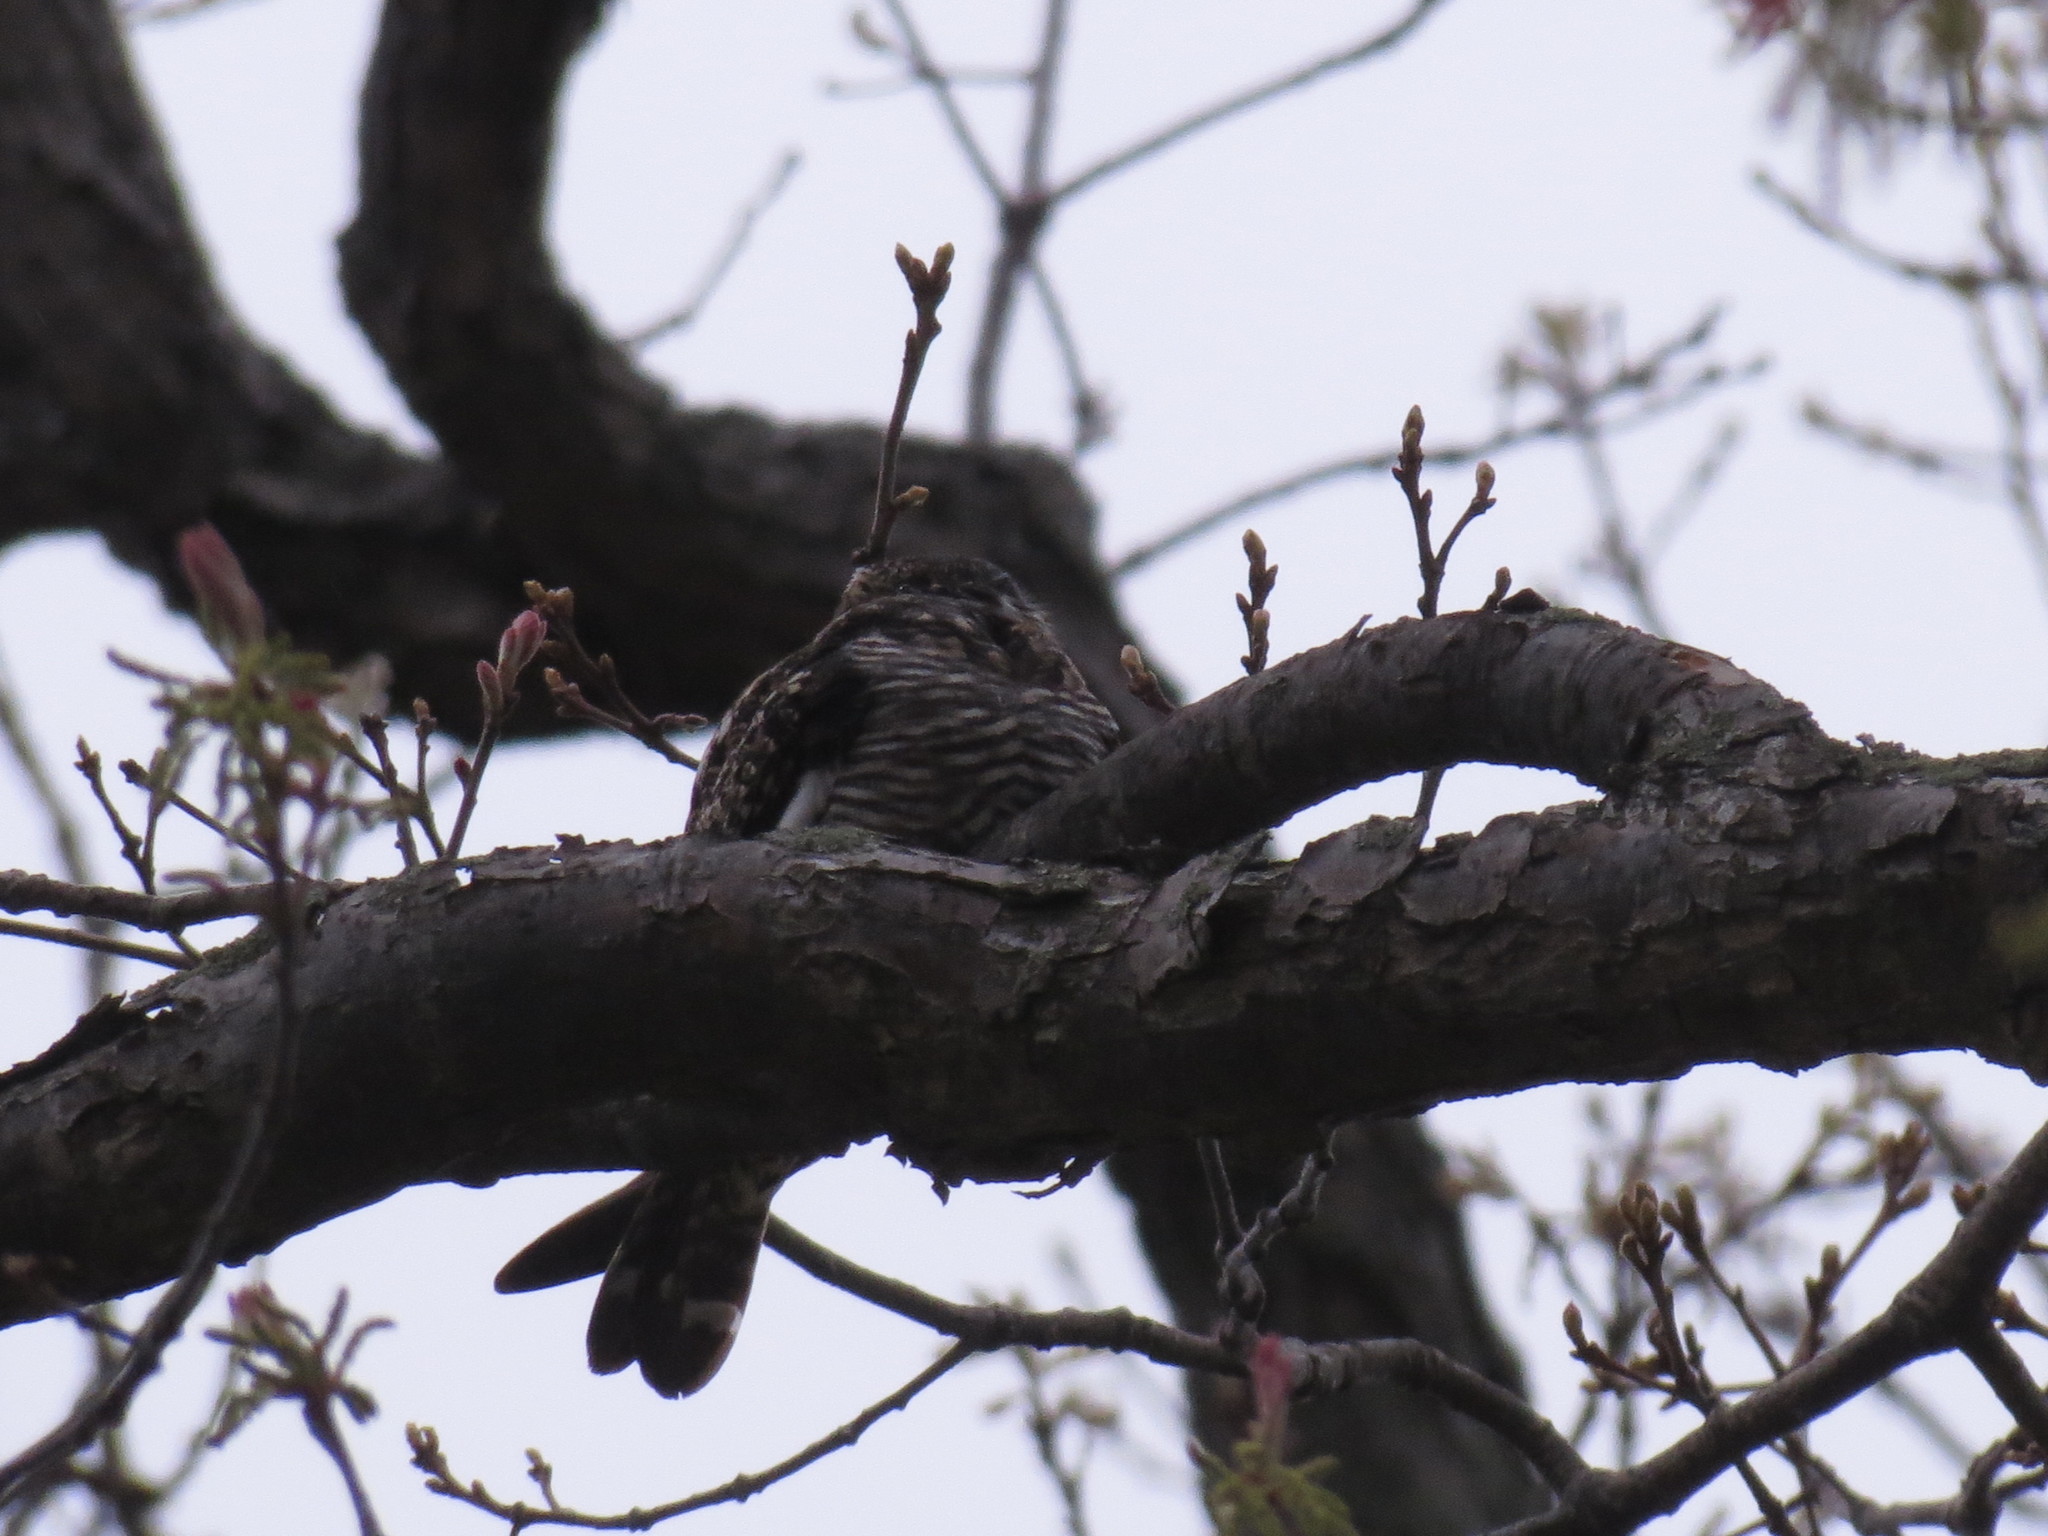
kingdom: Animalia
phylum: Chordata
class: Aves
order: Caprimulgiformes
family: Caprimulgidae
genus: Chordeiles
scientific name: Chordeiles minor
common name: Common nighthawk
